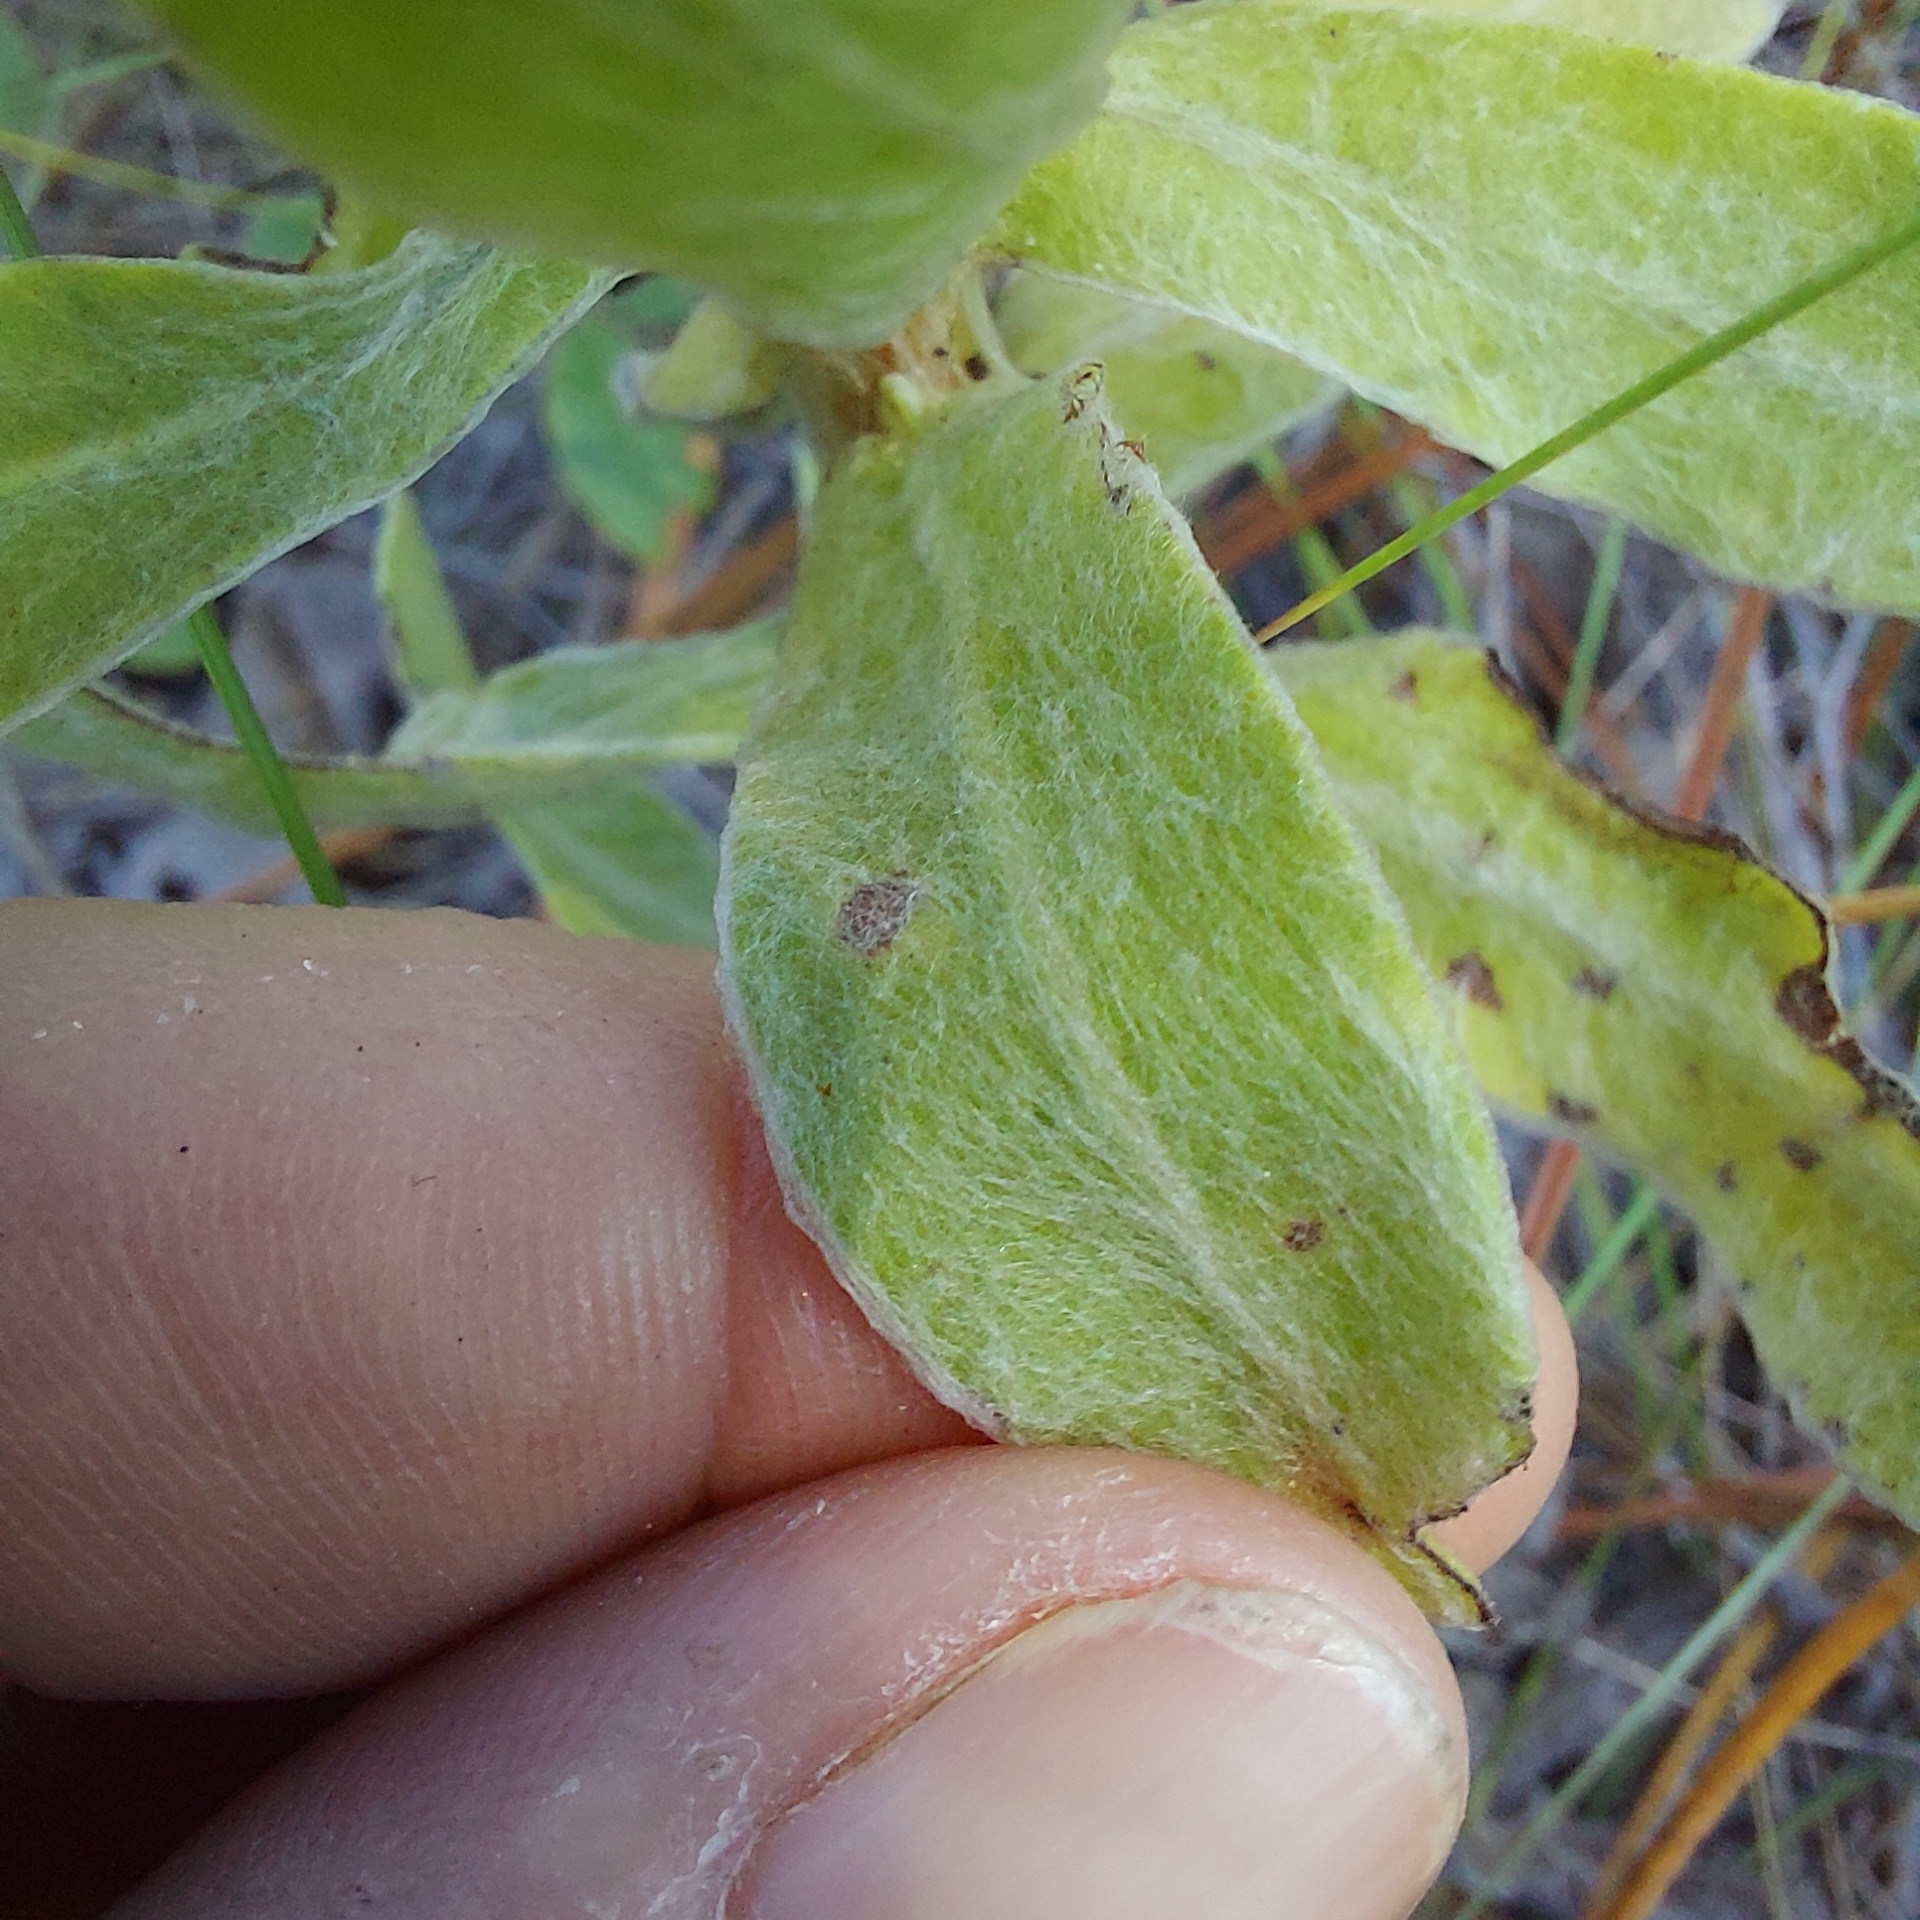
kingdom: Plantae
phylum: Tracheophyta
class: Magnoliopsida
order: Asterales
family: Asteraceae
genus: Chrysopsis
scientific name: Chrysopsis latisquamea
